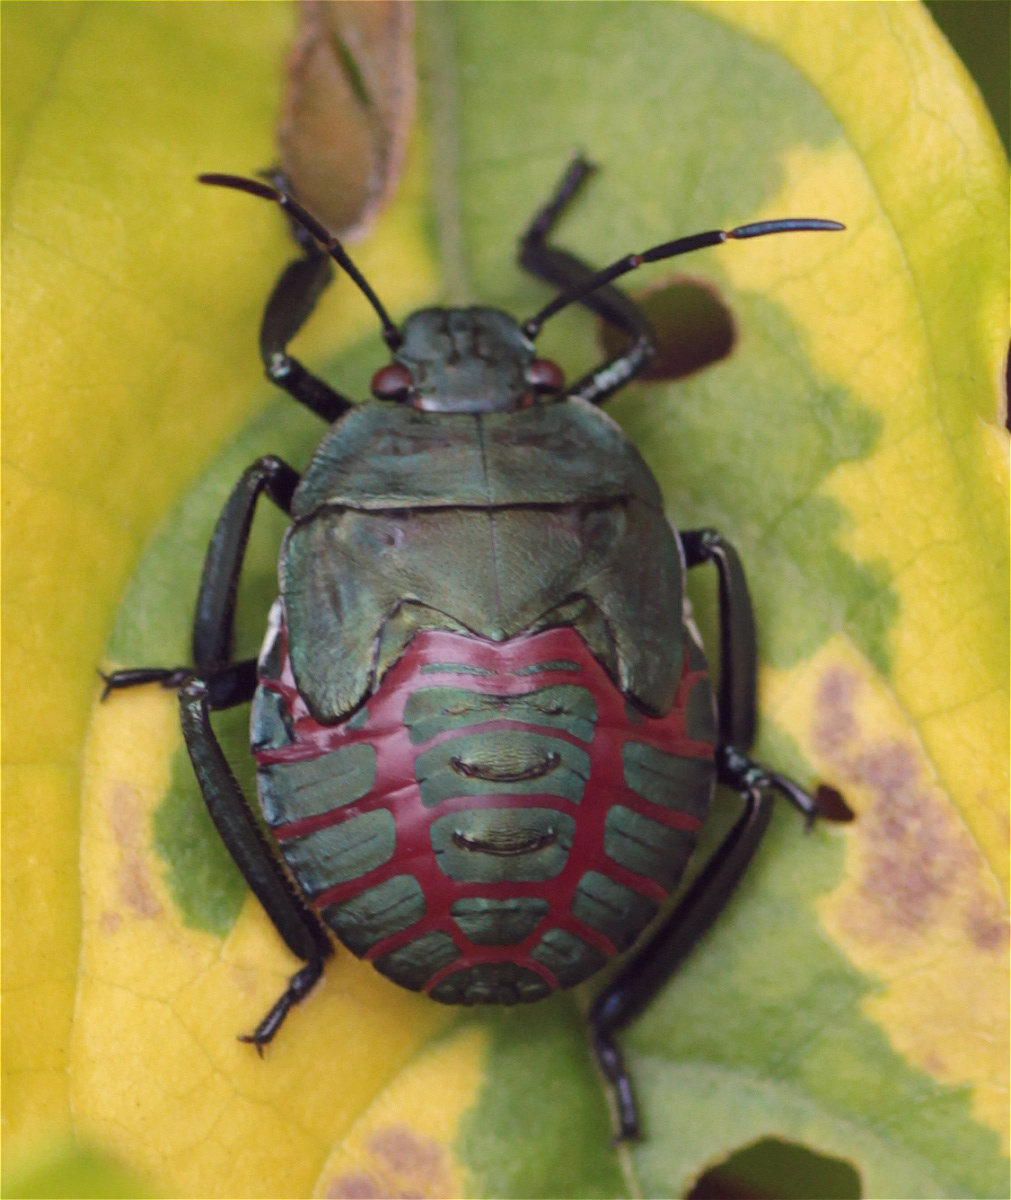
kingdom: Animalia
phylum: Arthropoda
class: Insecta
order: Hemiptera
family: Pentatomidae
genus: Pellaea
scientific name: Pellaea stictica
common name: Stink bug
